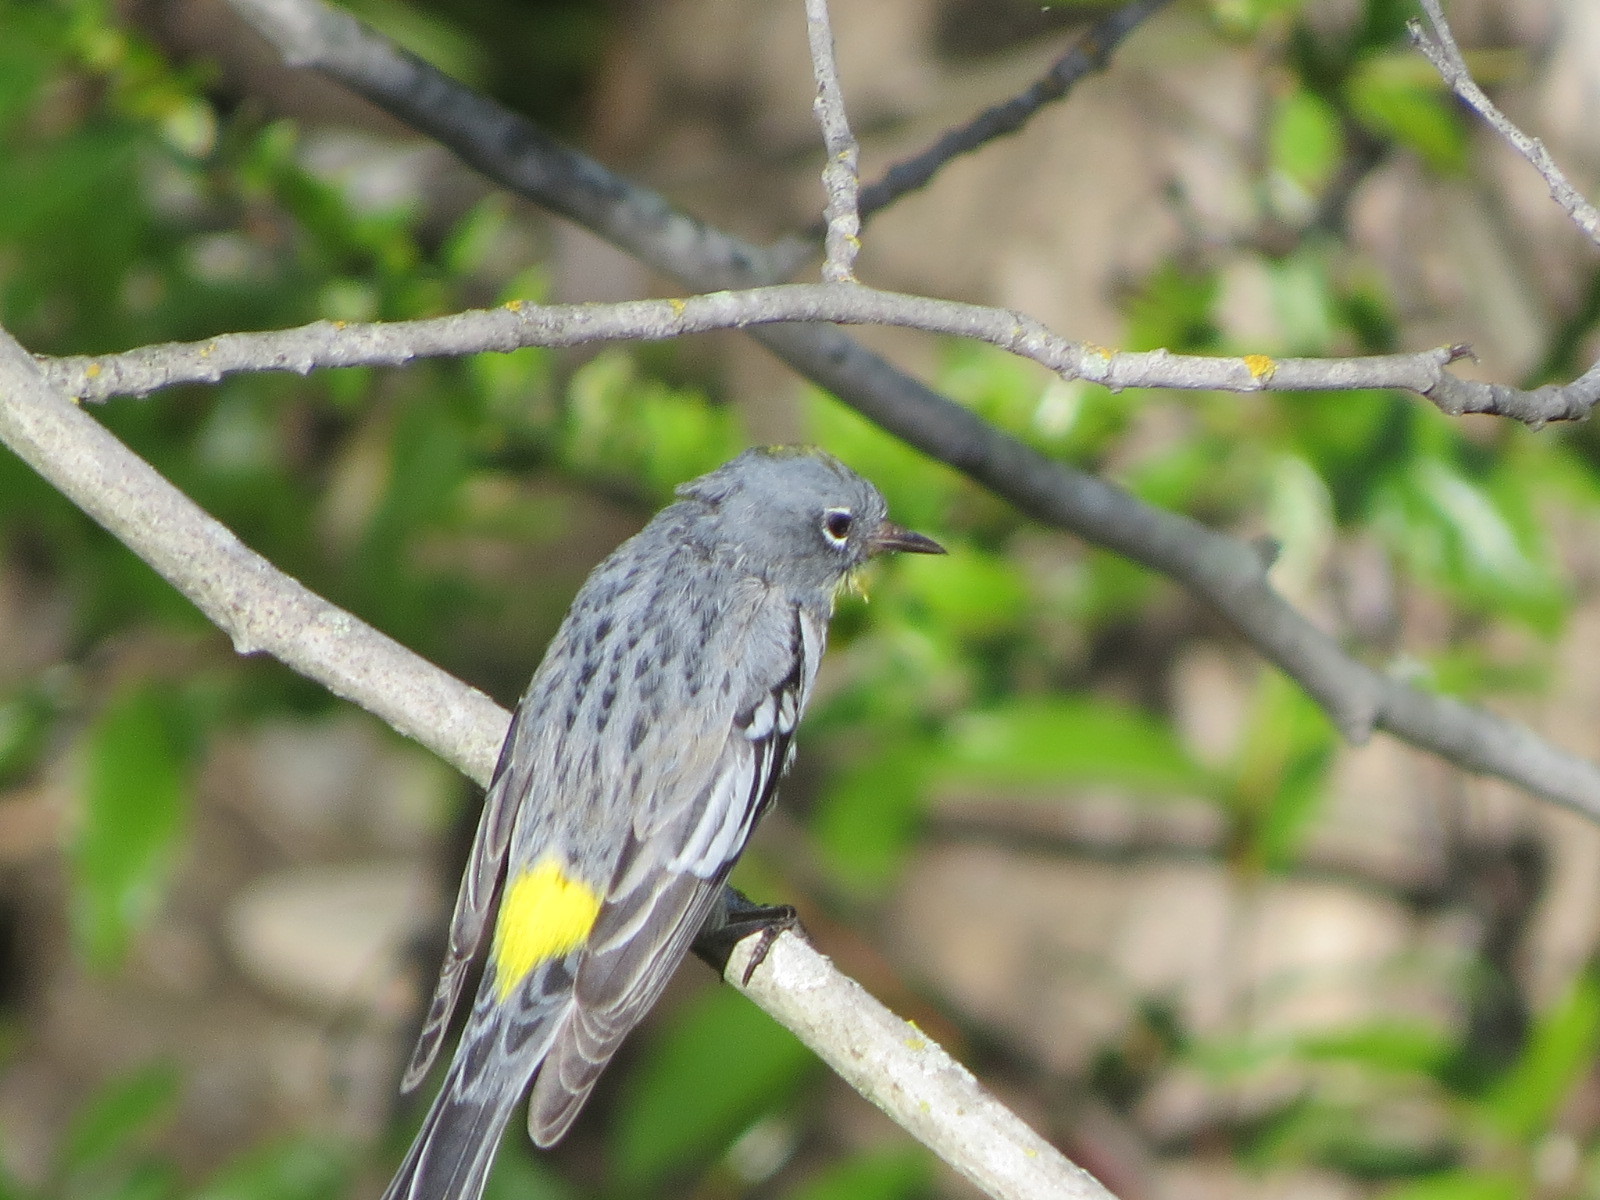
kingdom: Animalia
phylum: Chordata
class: Aves
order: Passeriformes
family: Parulidae
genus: Setophaga
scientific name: Setophaga coronata
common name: Myrtle warbler
